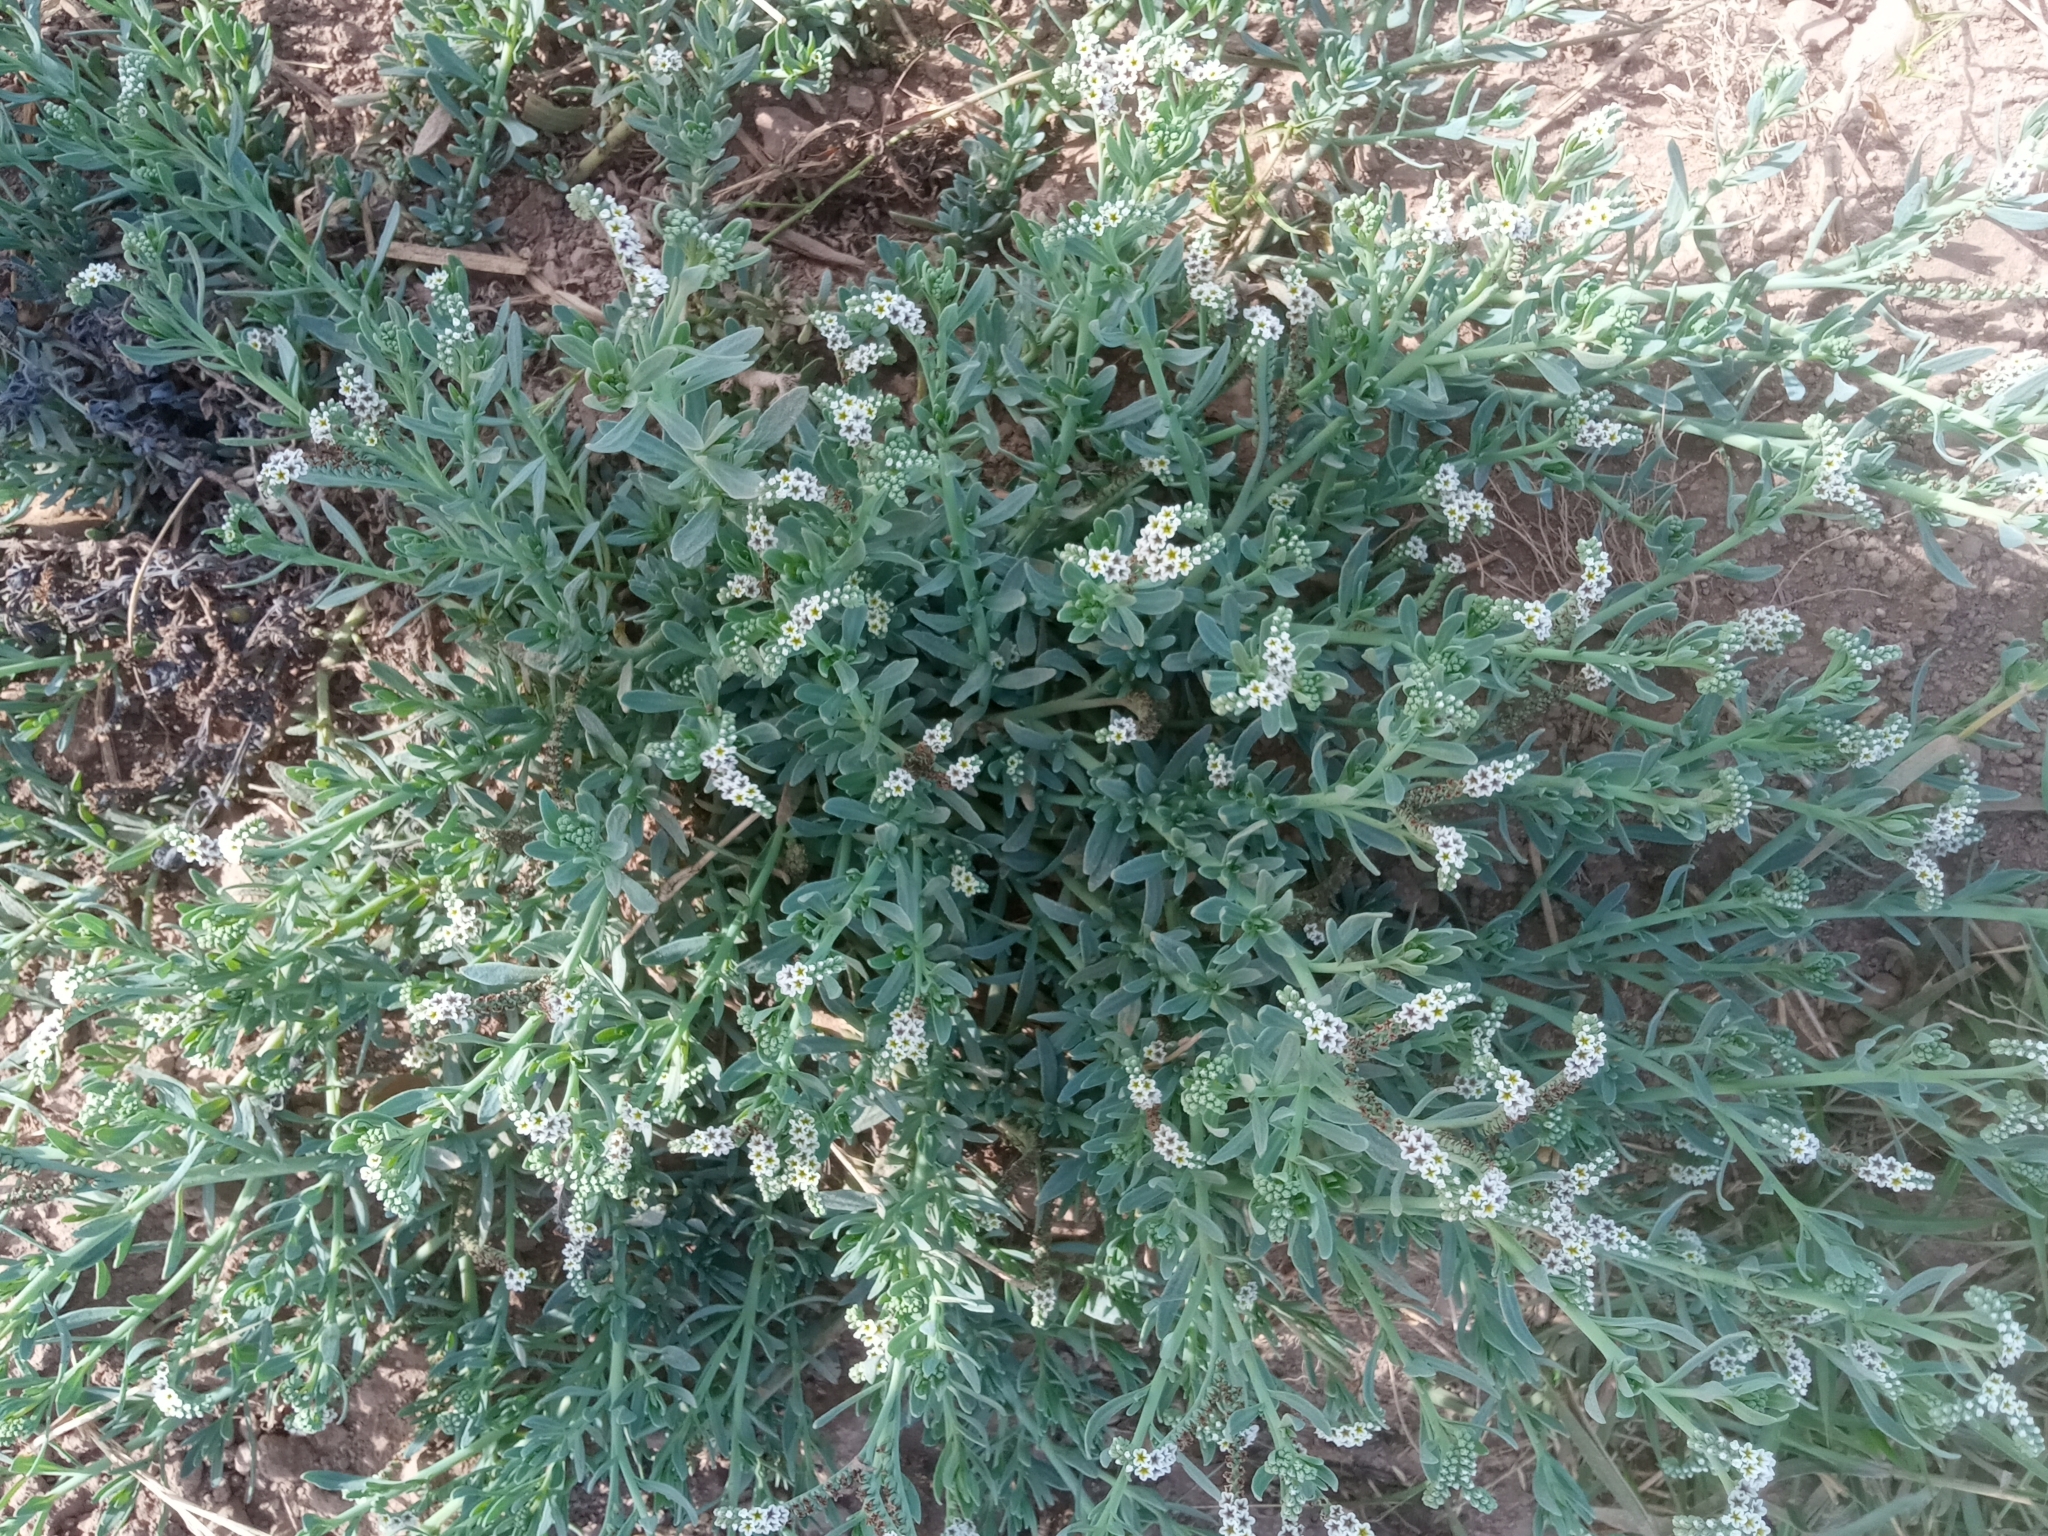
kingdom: Plantae
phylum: Tracheophyta
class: Magnoliopsida
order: Boraginales
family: Heliotropiaceae
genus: Heliotropium
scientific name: Heliotropium curassavicum
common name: Seaside heliotrope
